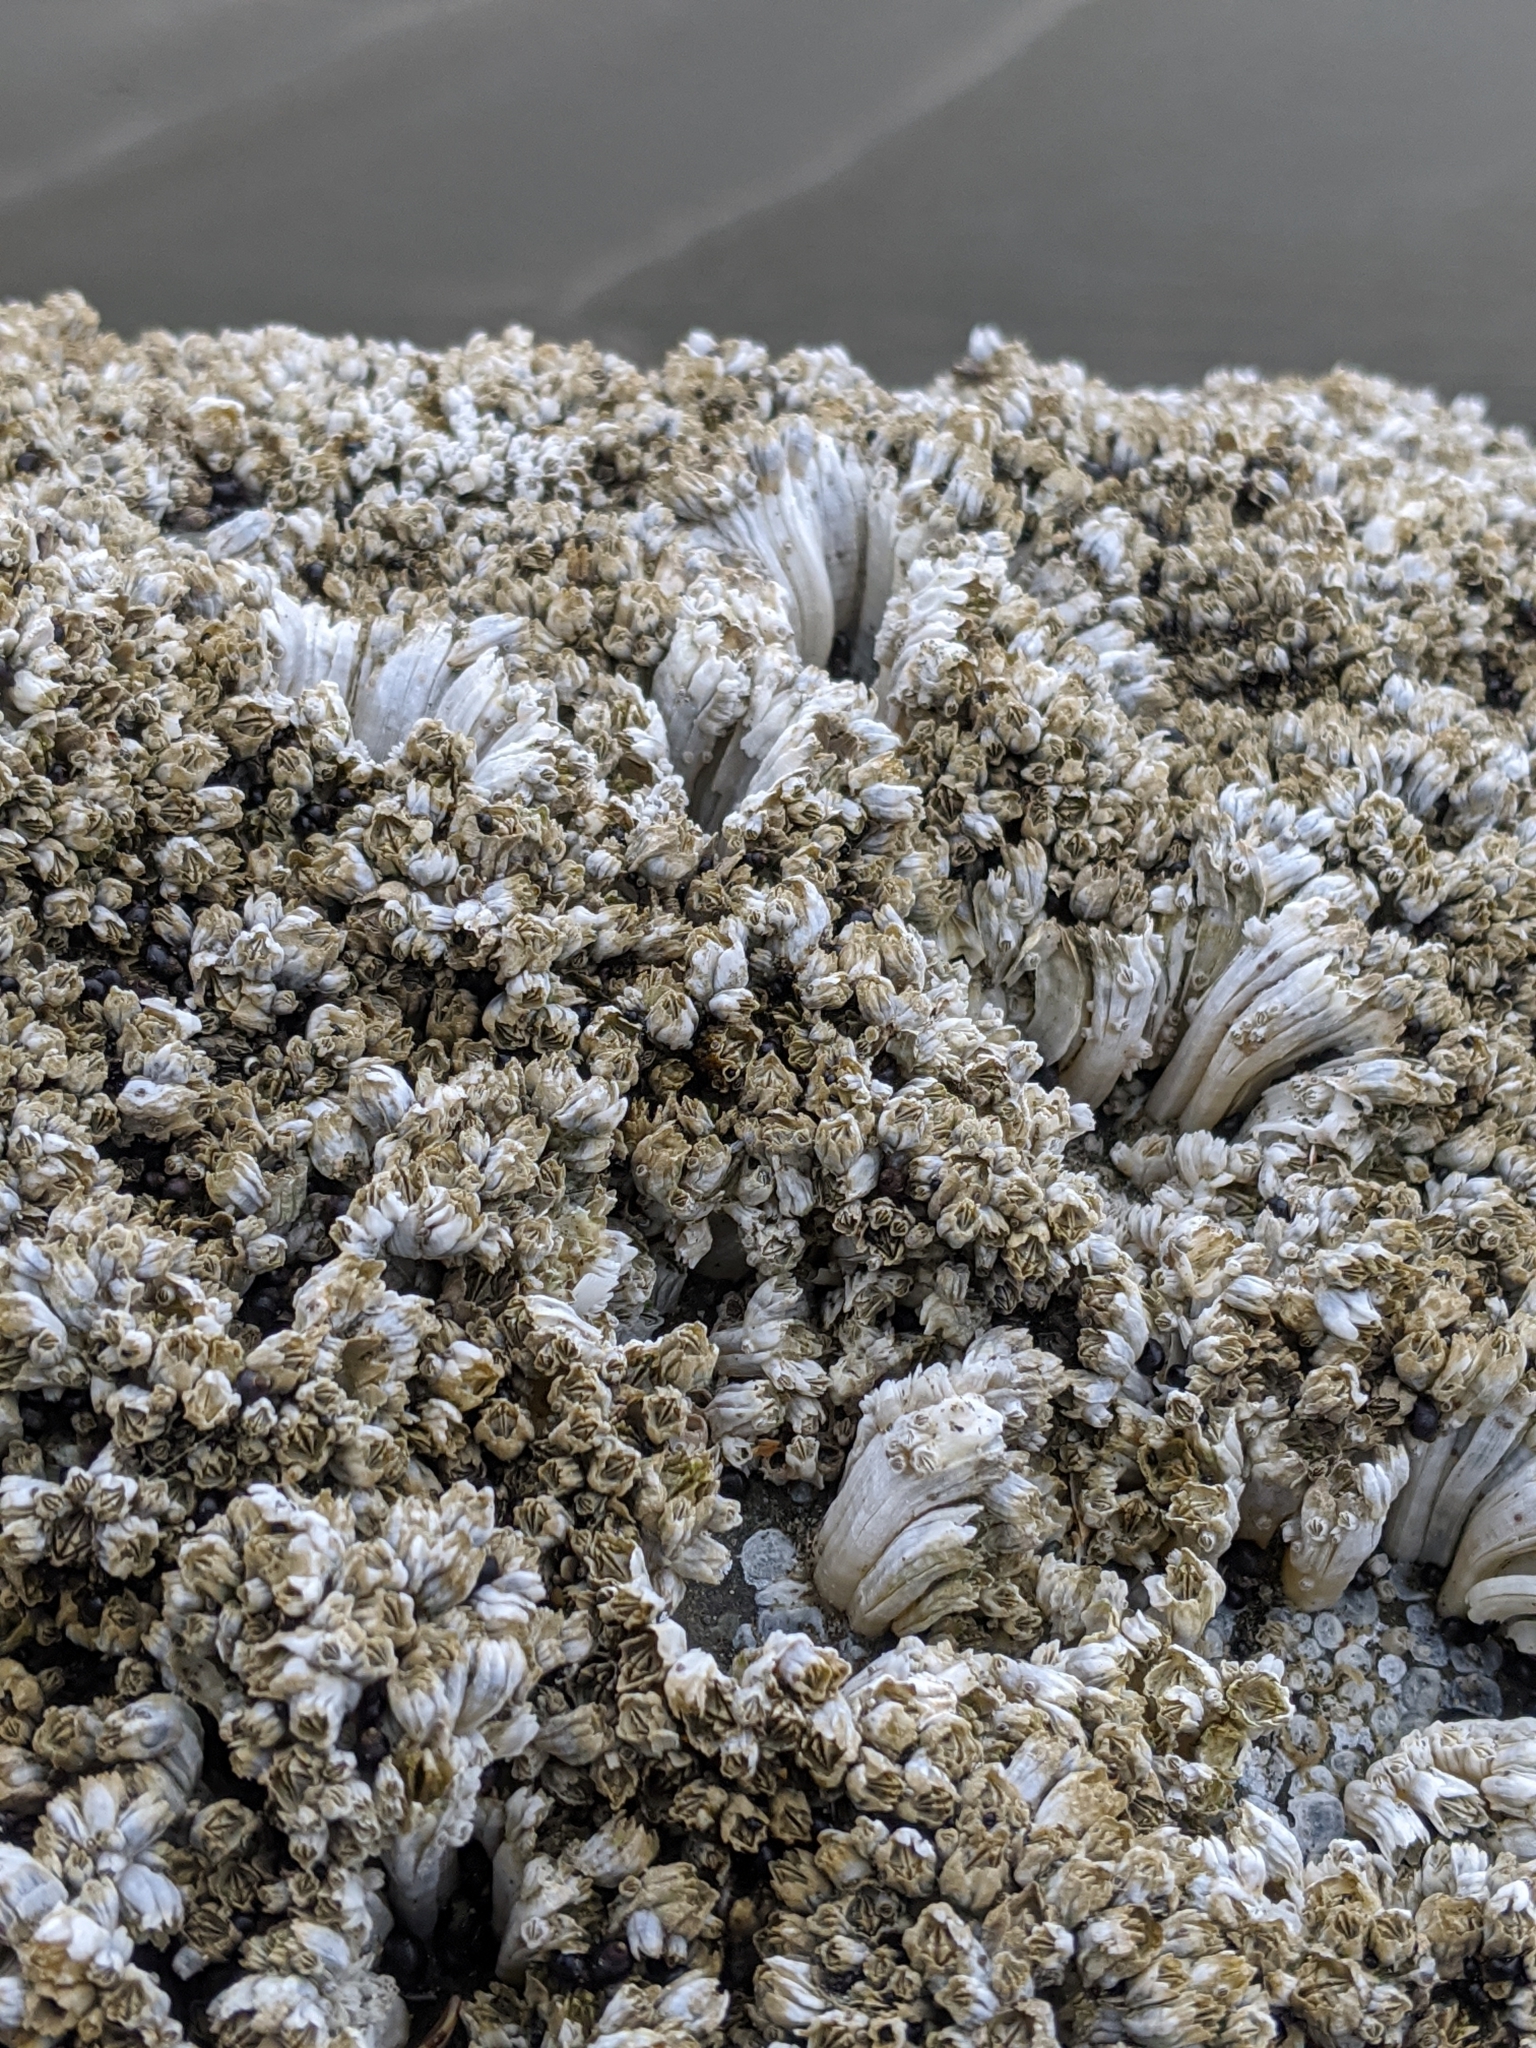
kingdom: Animalia
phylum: Arthropoda
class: Maxillopoda
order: Sessilia
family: Balanidae
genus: Balanus
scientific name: Balanus glandula
